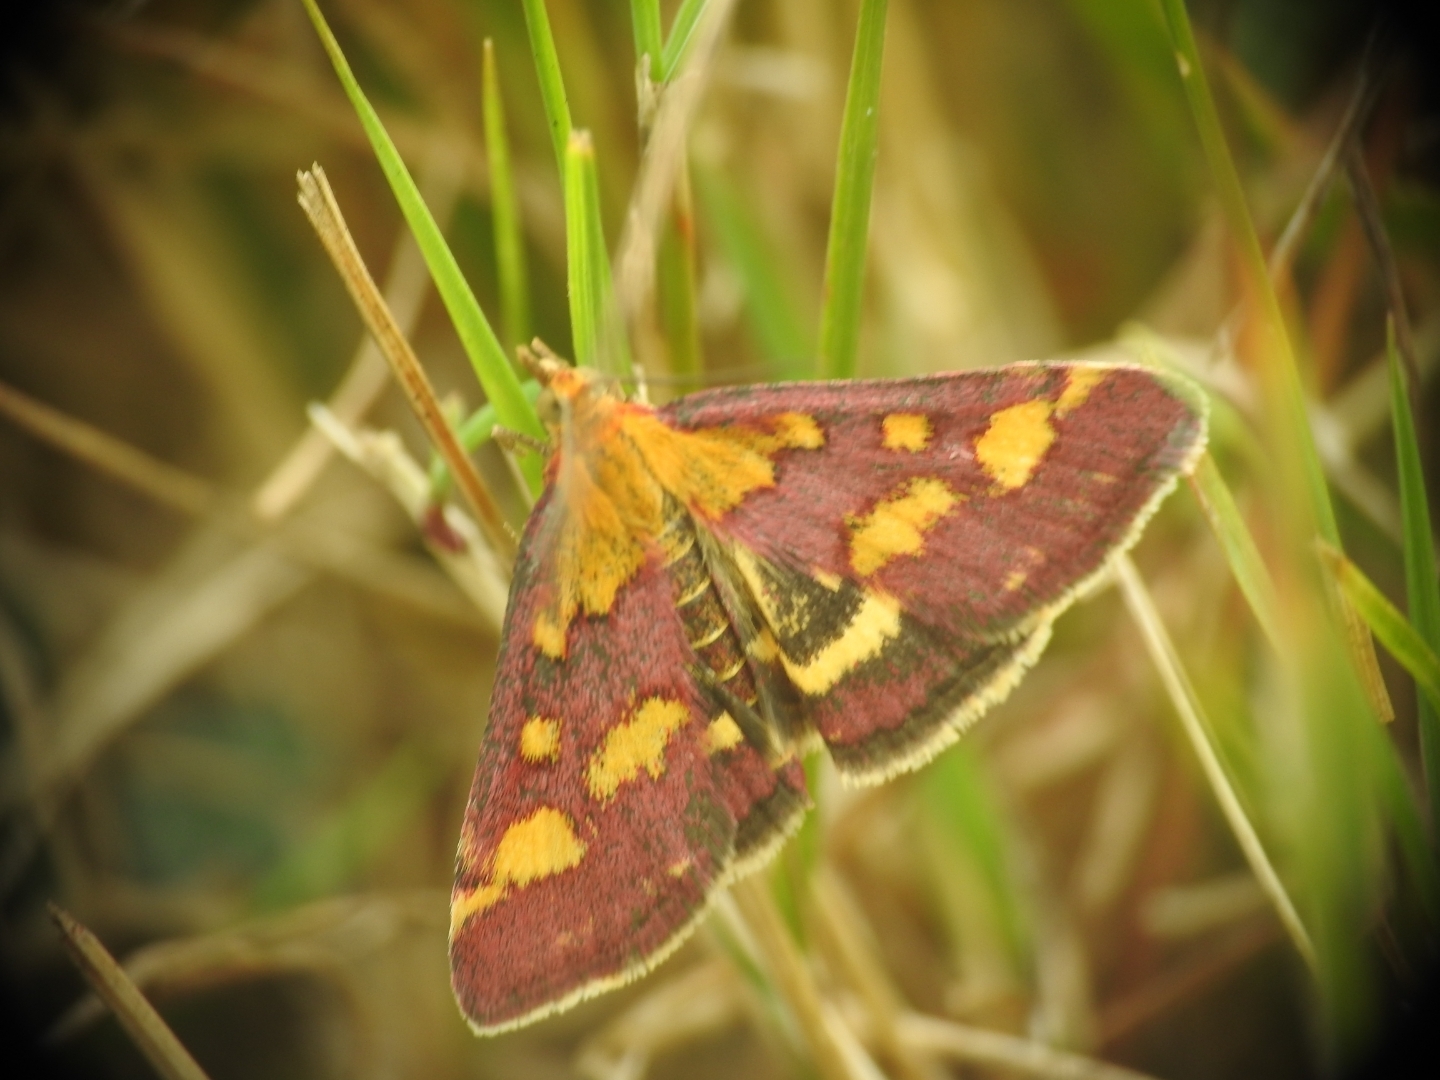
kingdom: Animalia
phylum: Arthropoda
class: Insecta
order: Lepidoptera
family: Crambidae
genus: Pyrausta
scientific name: Pyrausta purpuralis
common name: Common purple & gold
